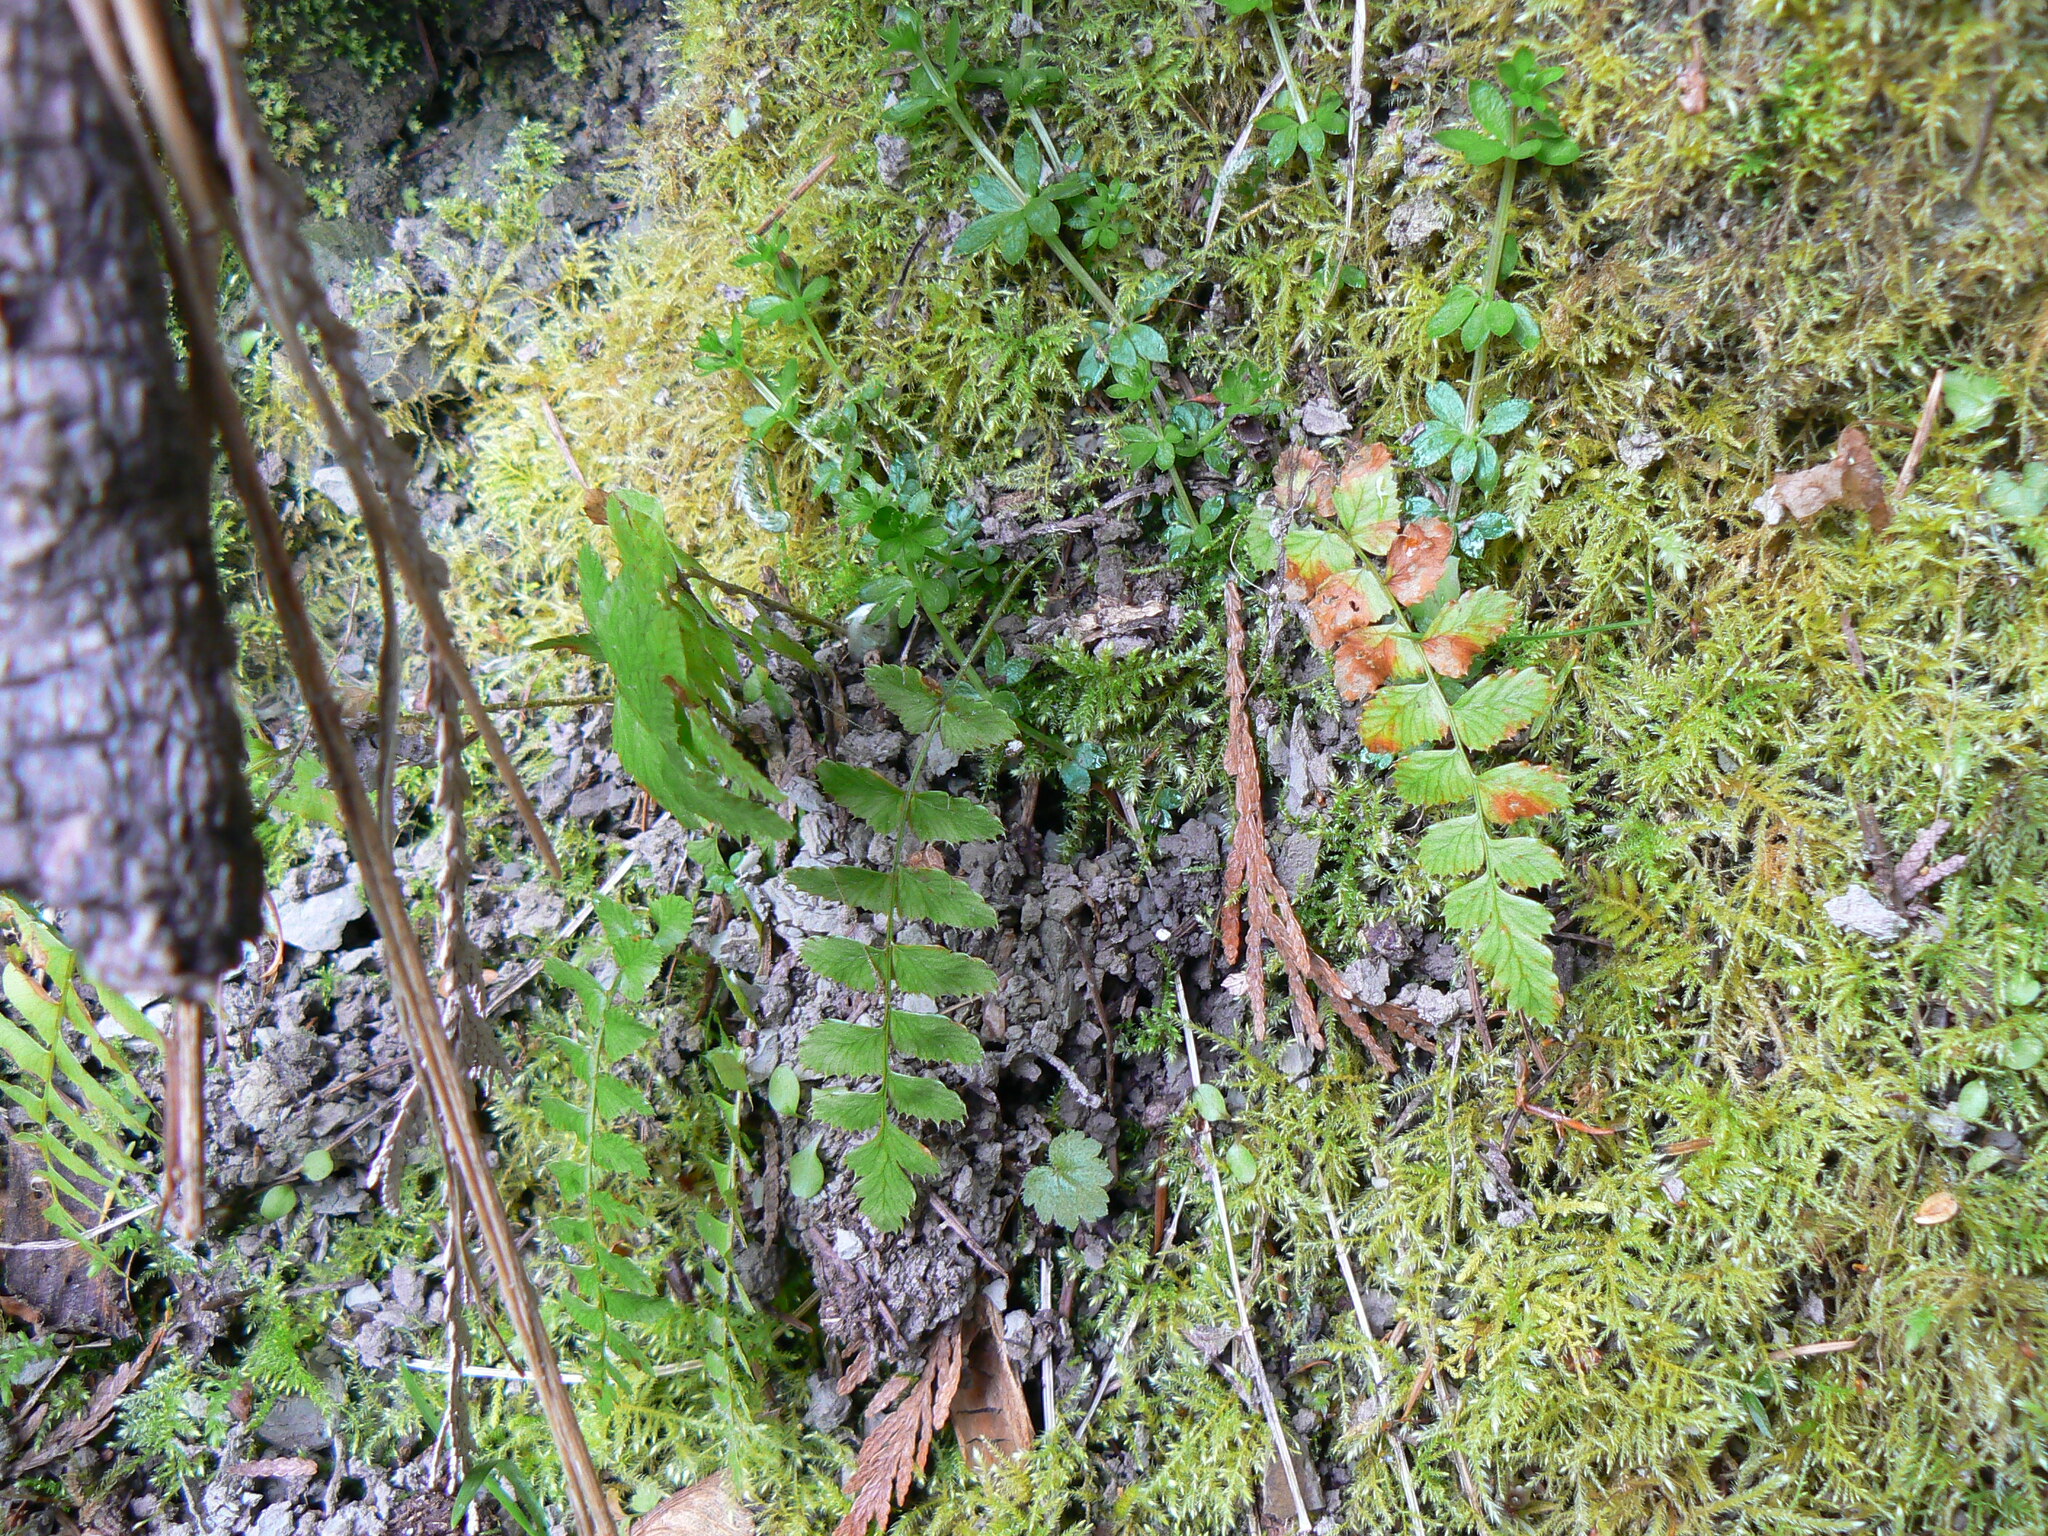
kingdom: Plantae
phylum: Tracheophyta
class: Polypodiopsida
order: Polypodiales
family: Dryopteridaceae
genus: Polystichum
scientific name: Polystichum munitum
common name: Western sword-fern
